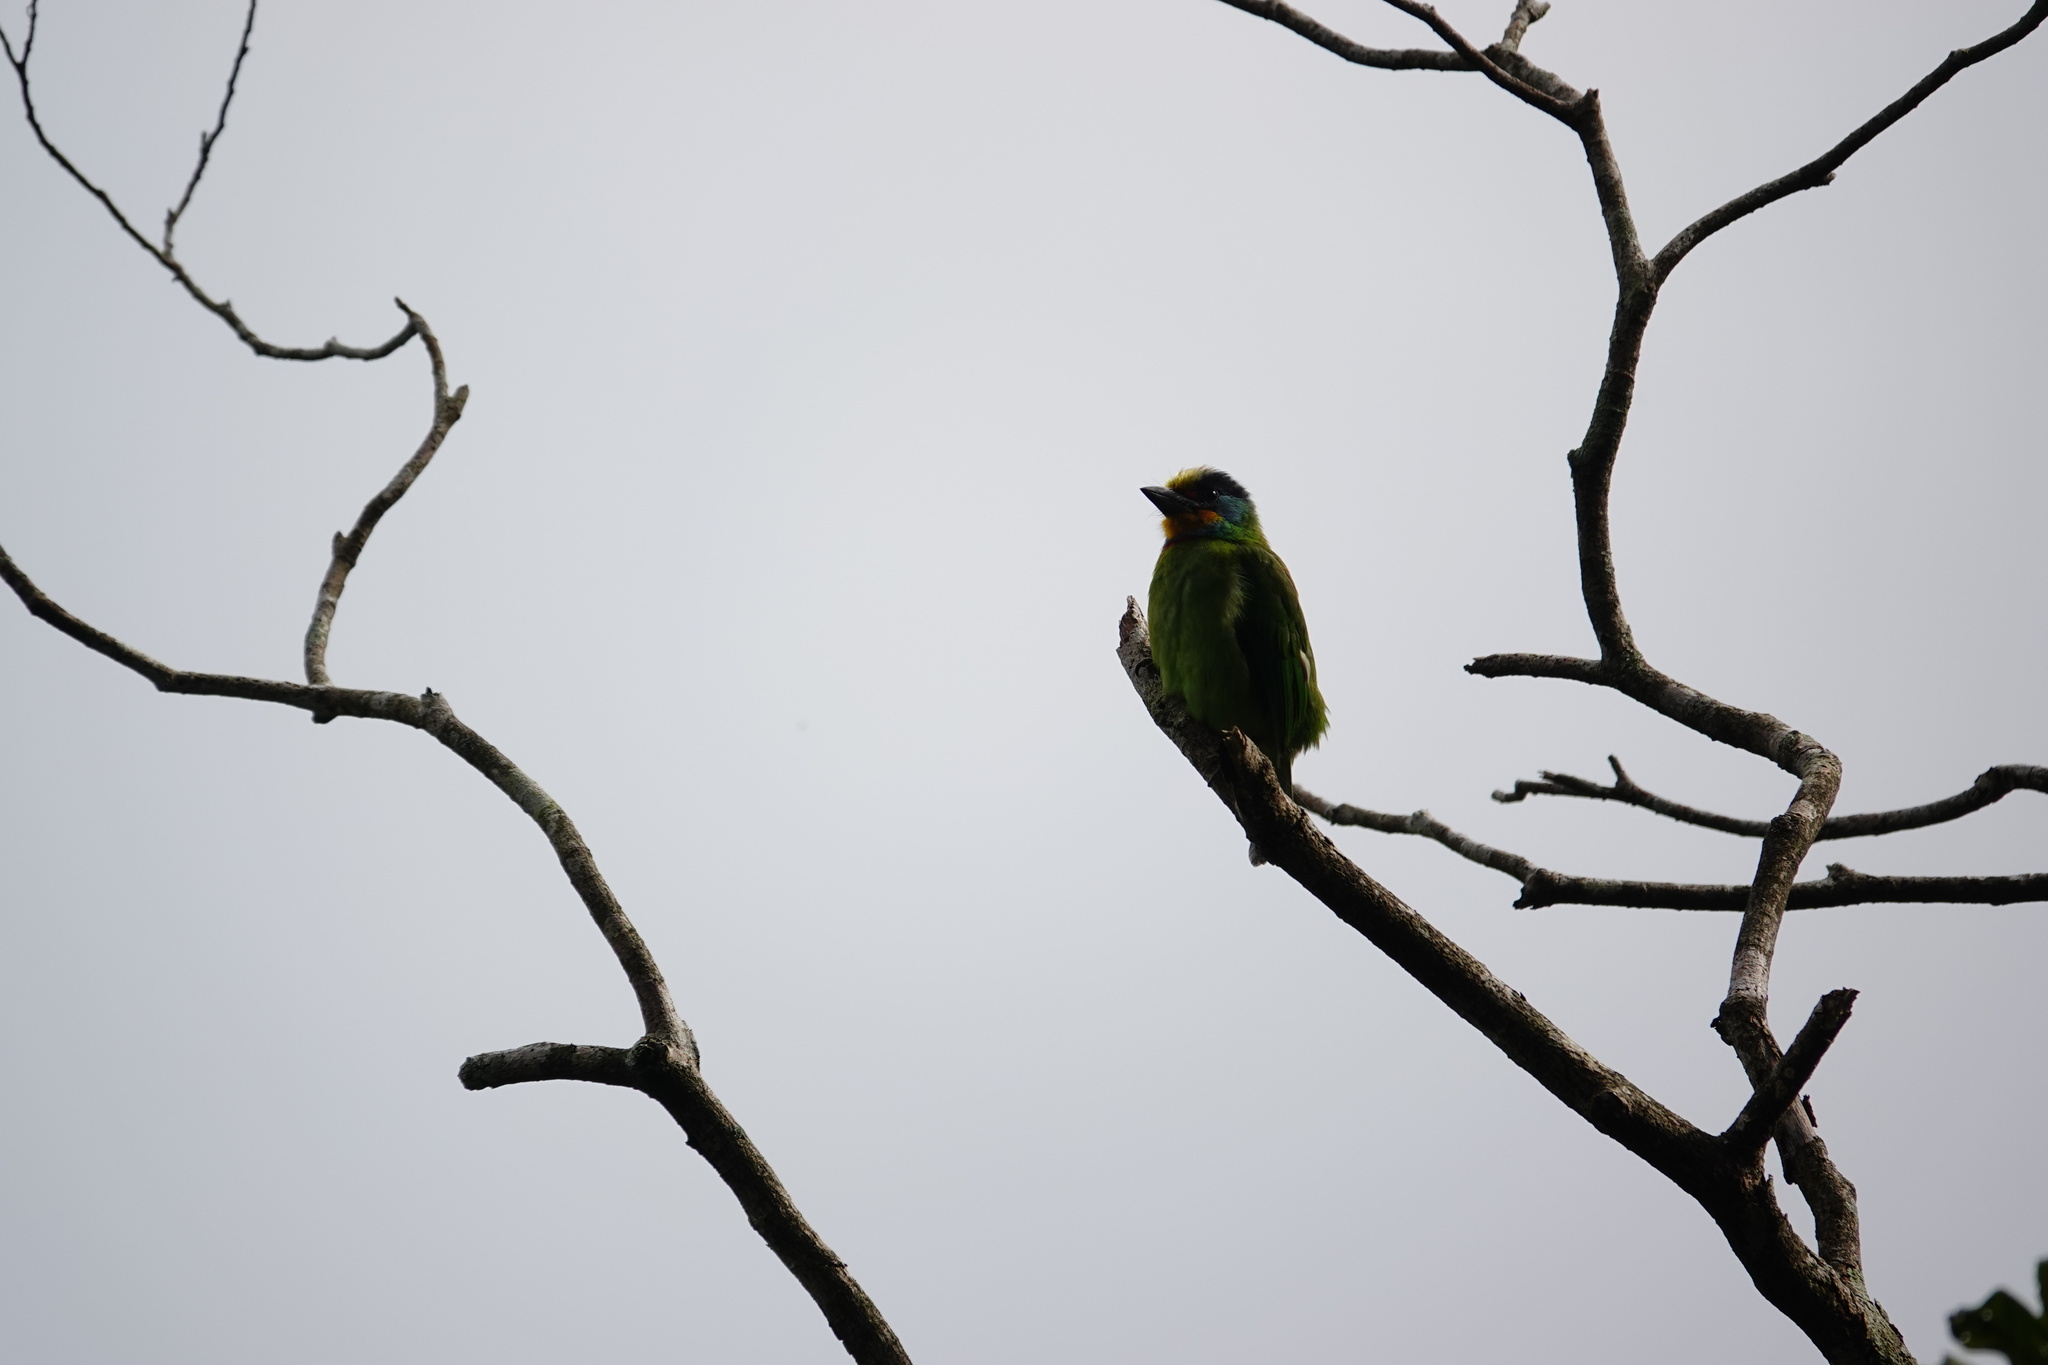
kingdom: Animalia
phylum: Chordata
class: Aves
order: Piciformes
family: Megalaimidae
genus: Psilopogon
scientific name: Psilopogon nuchalis
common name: Taiwan barbet
